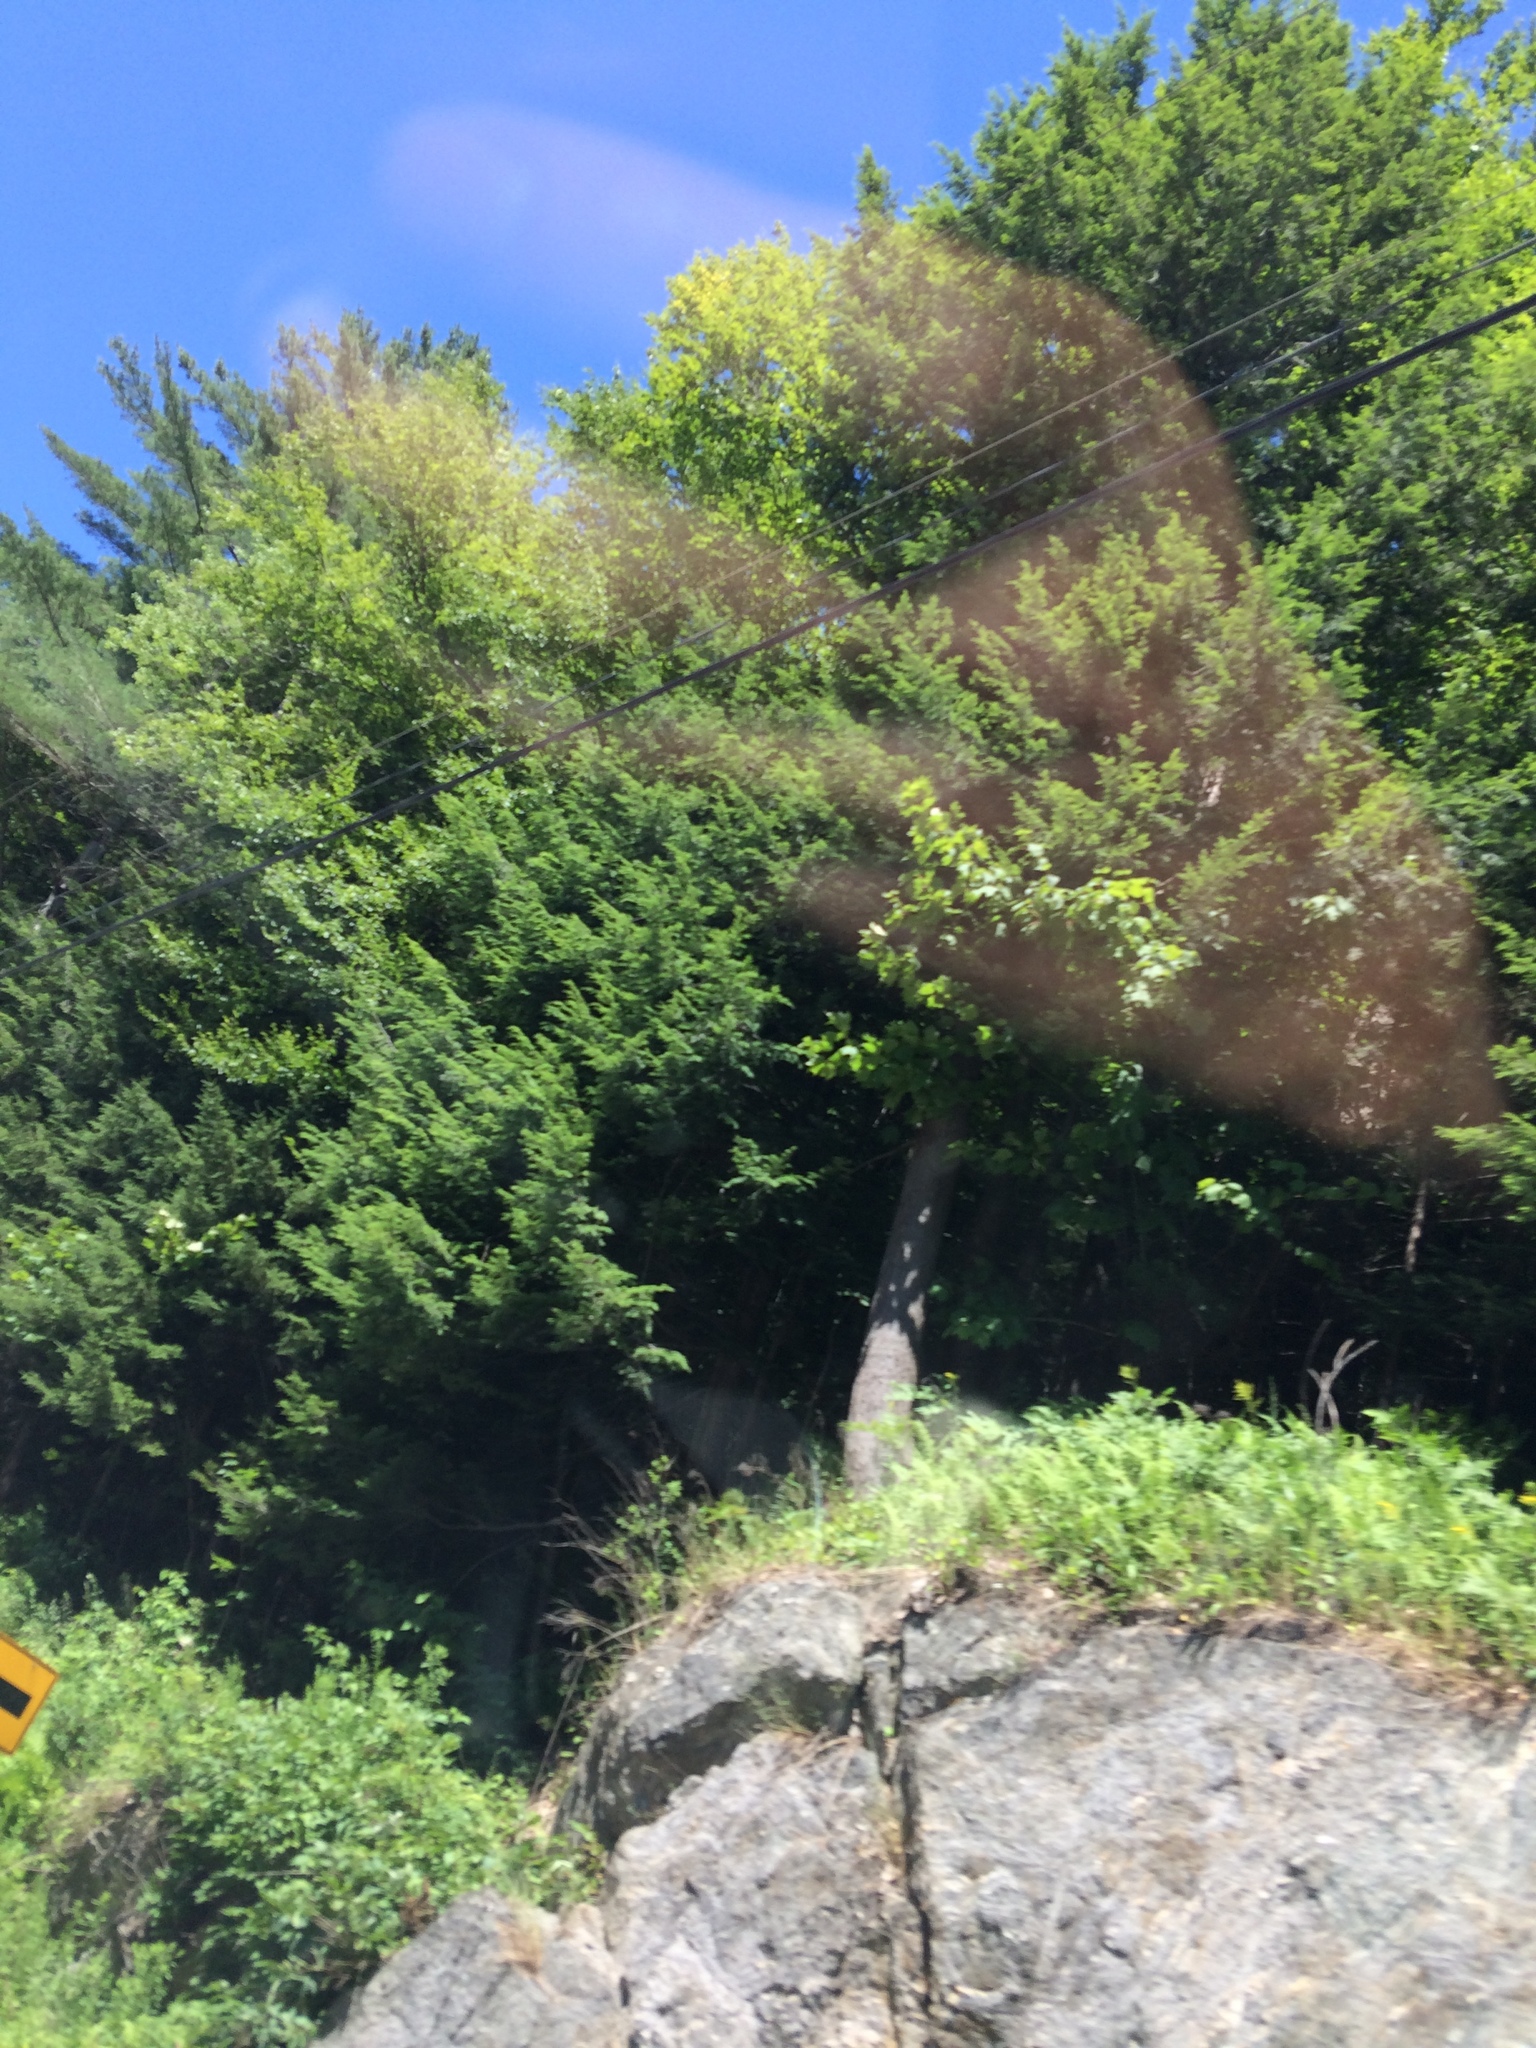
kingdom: Plantae
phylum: Tracheophyta
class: Pinopsida
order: Pinales
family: Pinaceae
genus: Tsuga
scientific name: Tsuga canadensis
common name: Eastern hemlock
